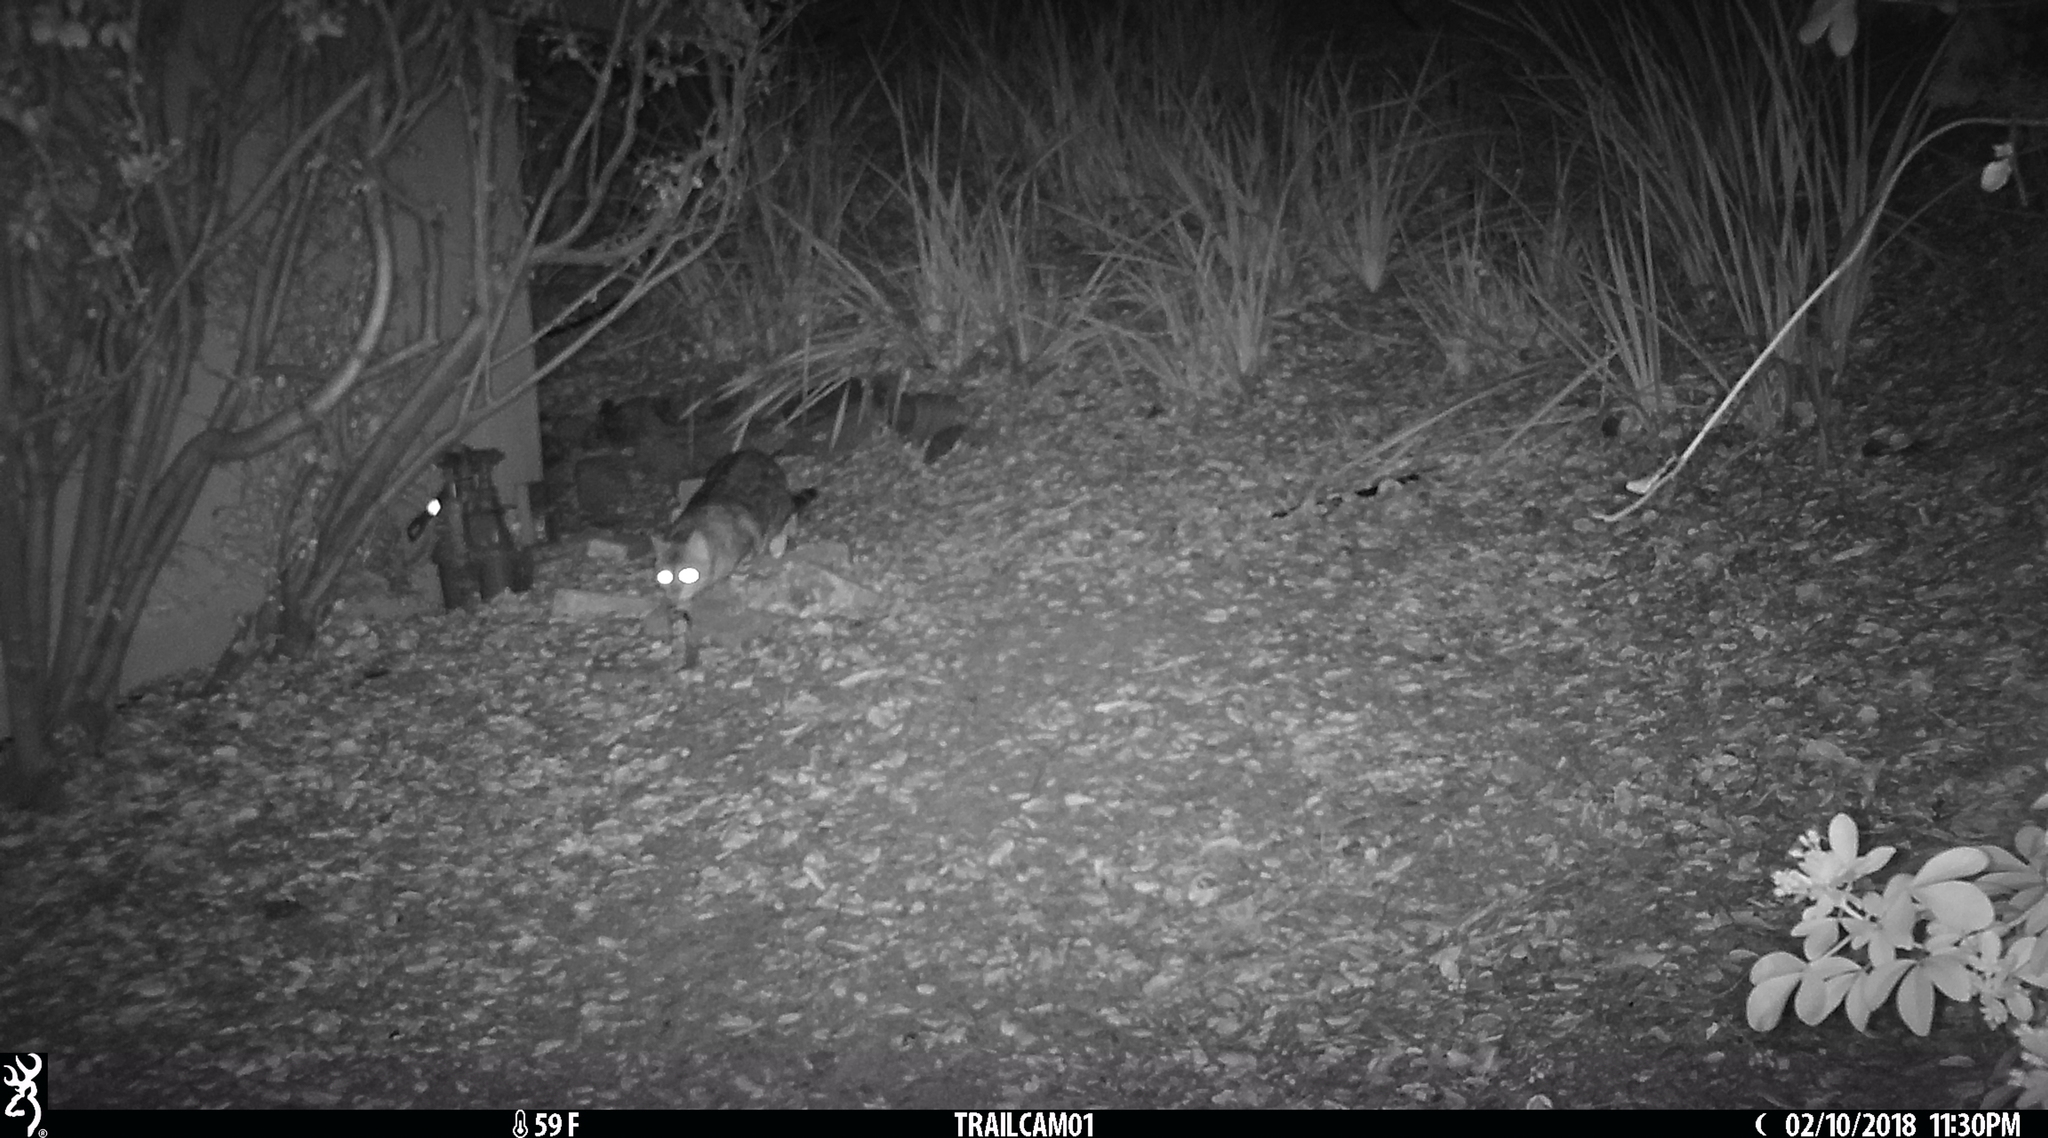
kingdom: Animalia
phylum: Chordata
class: Mammalia
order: Carnivora
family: Felidae
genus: Felis
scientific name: Felis catus
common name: Domestic cat
